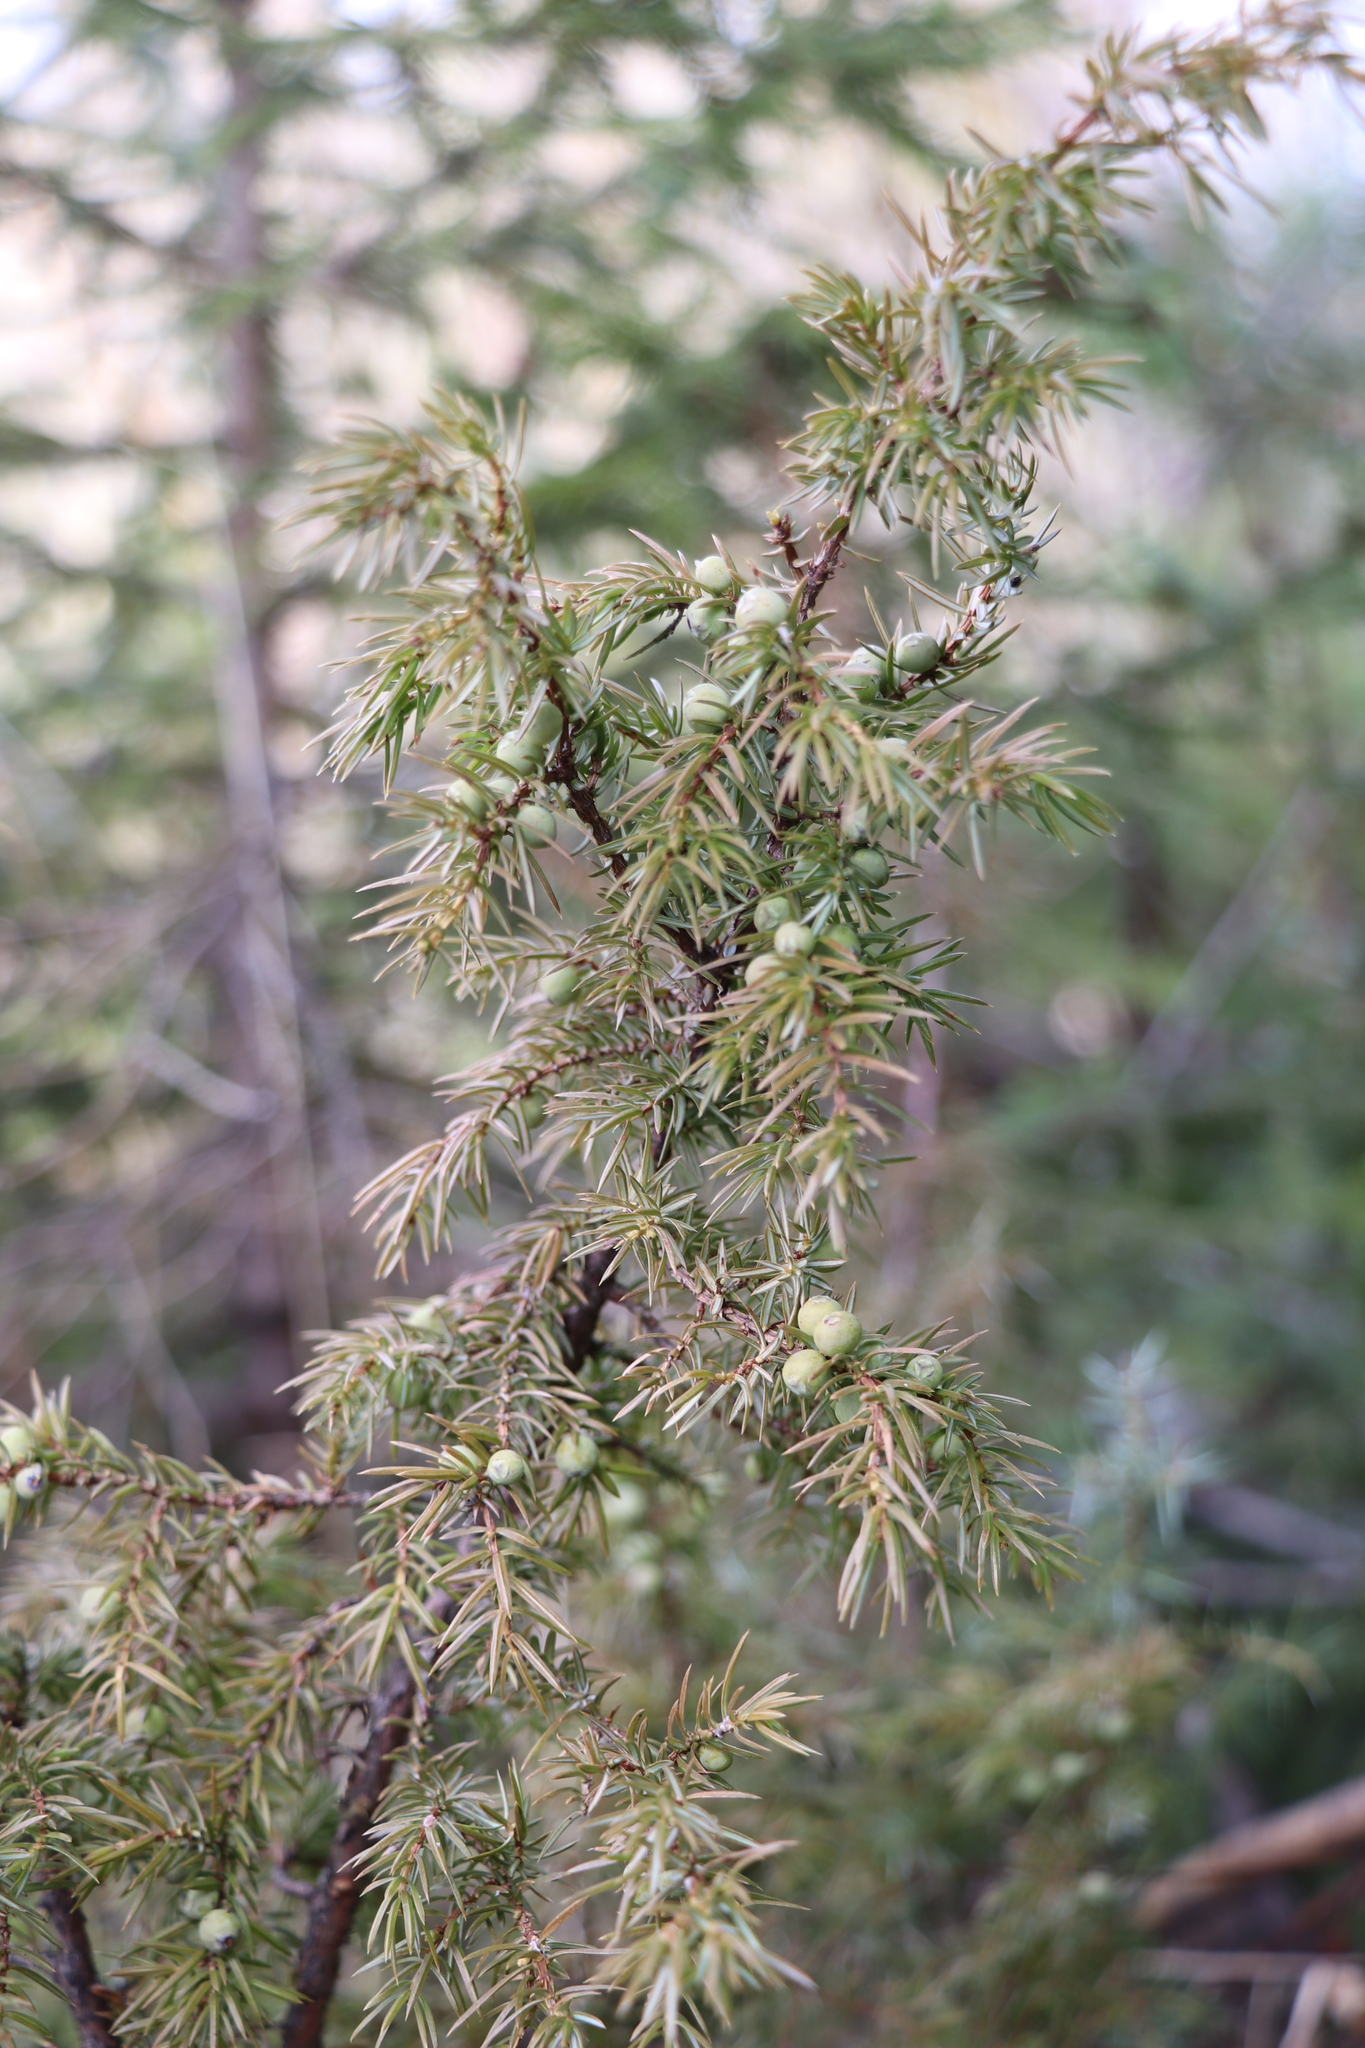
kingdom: Plantae
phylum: Tracheophyta
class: Pinopsida
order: Pinales
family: Cupressaceae
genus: Juniperus
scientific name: Juniperus communis
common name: Common juniper
